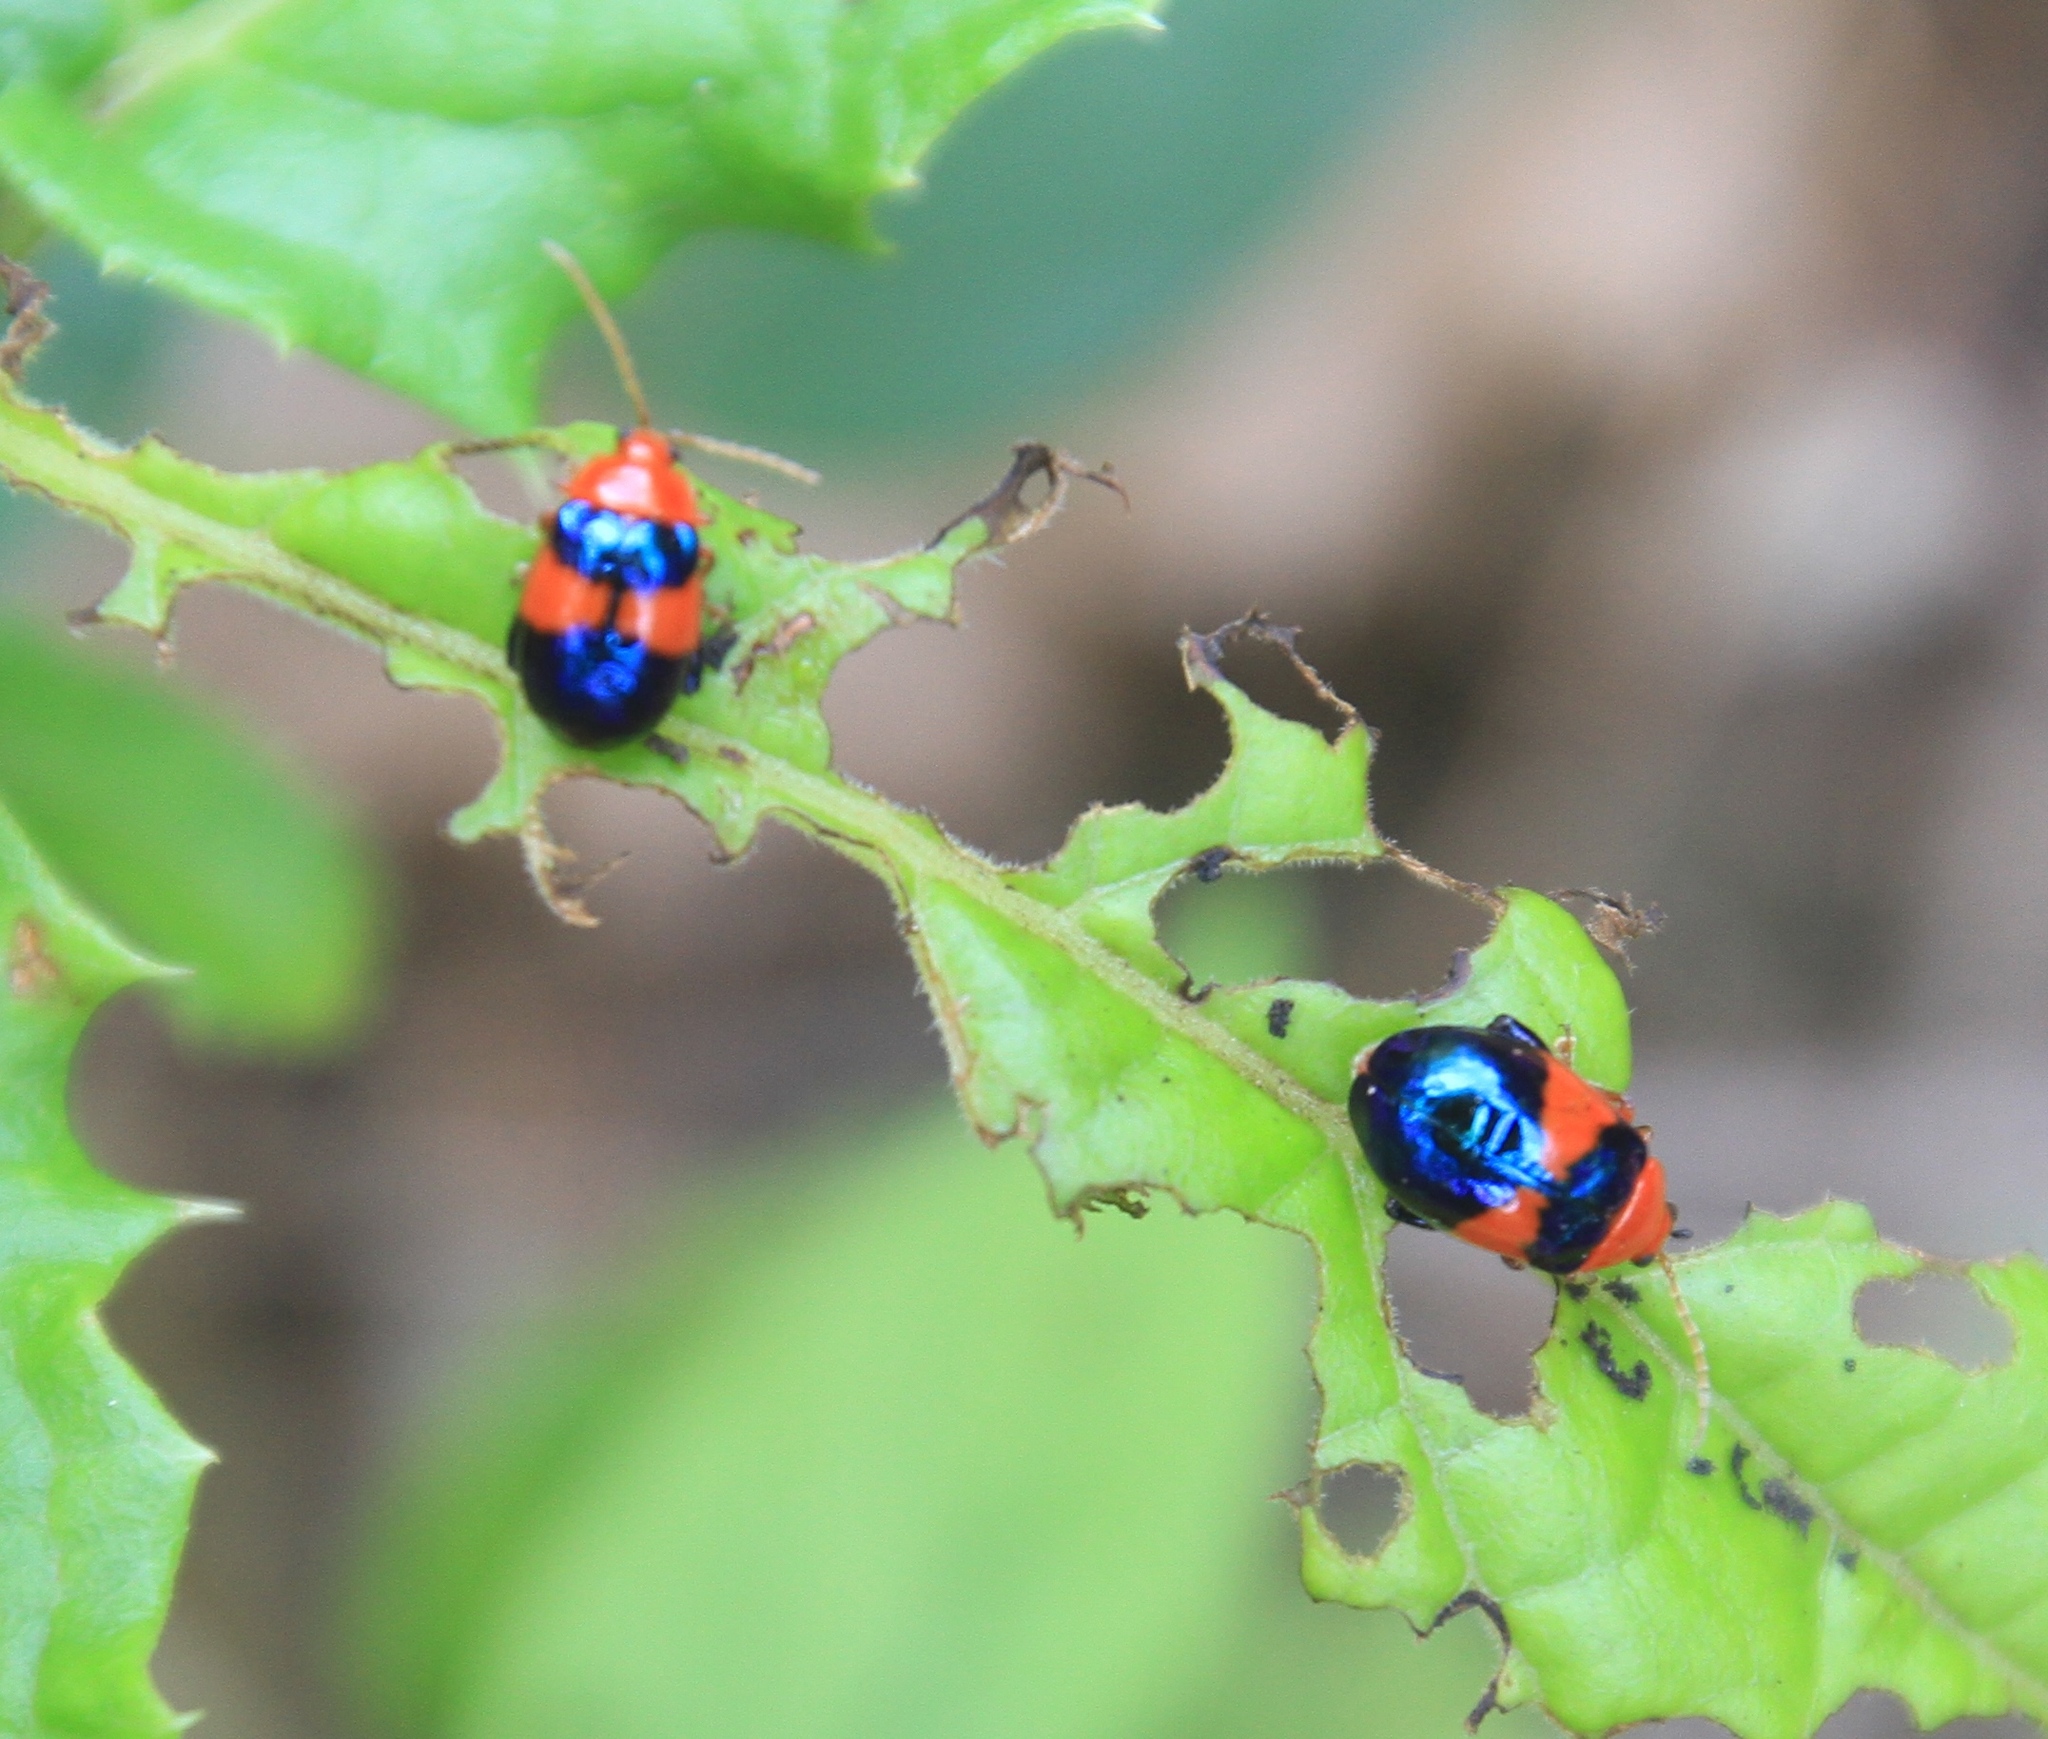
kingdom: Animalia
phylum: Arthropoda
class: Insecta
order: Coleoptera
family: Chrysomelidae
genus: Ciguapanychis
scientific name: Ciguapanychis
